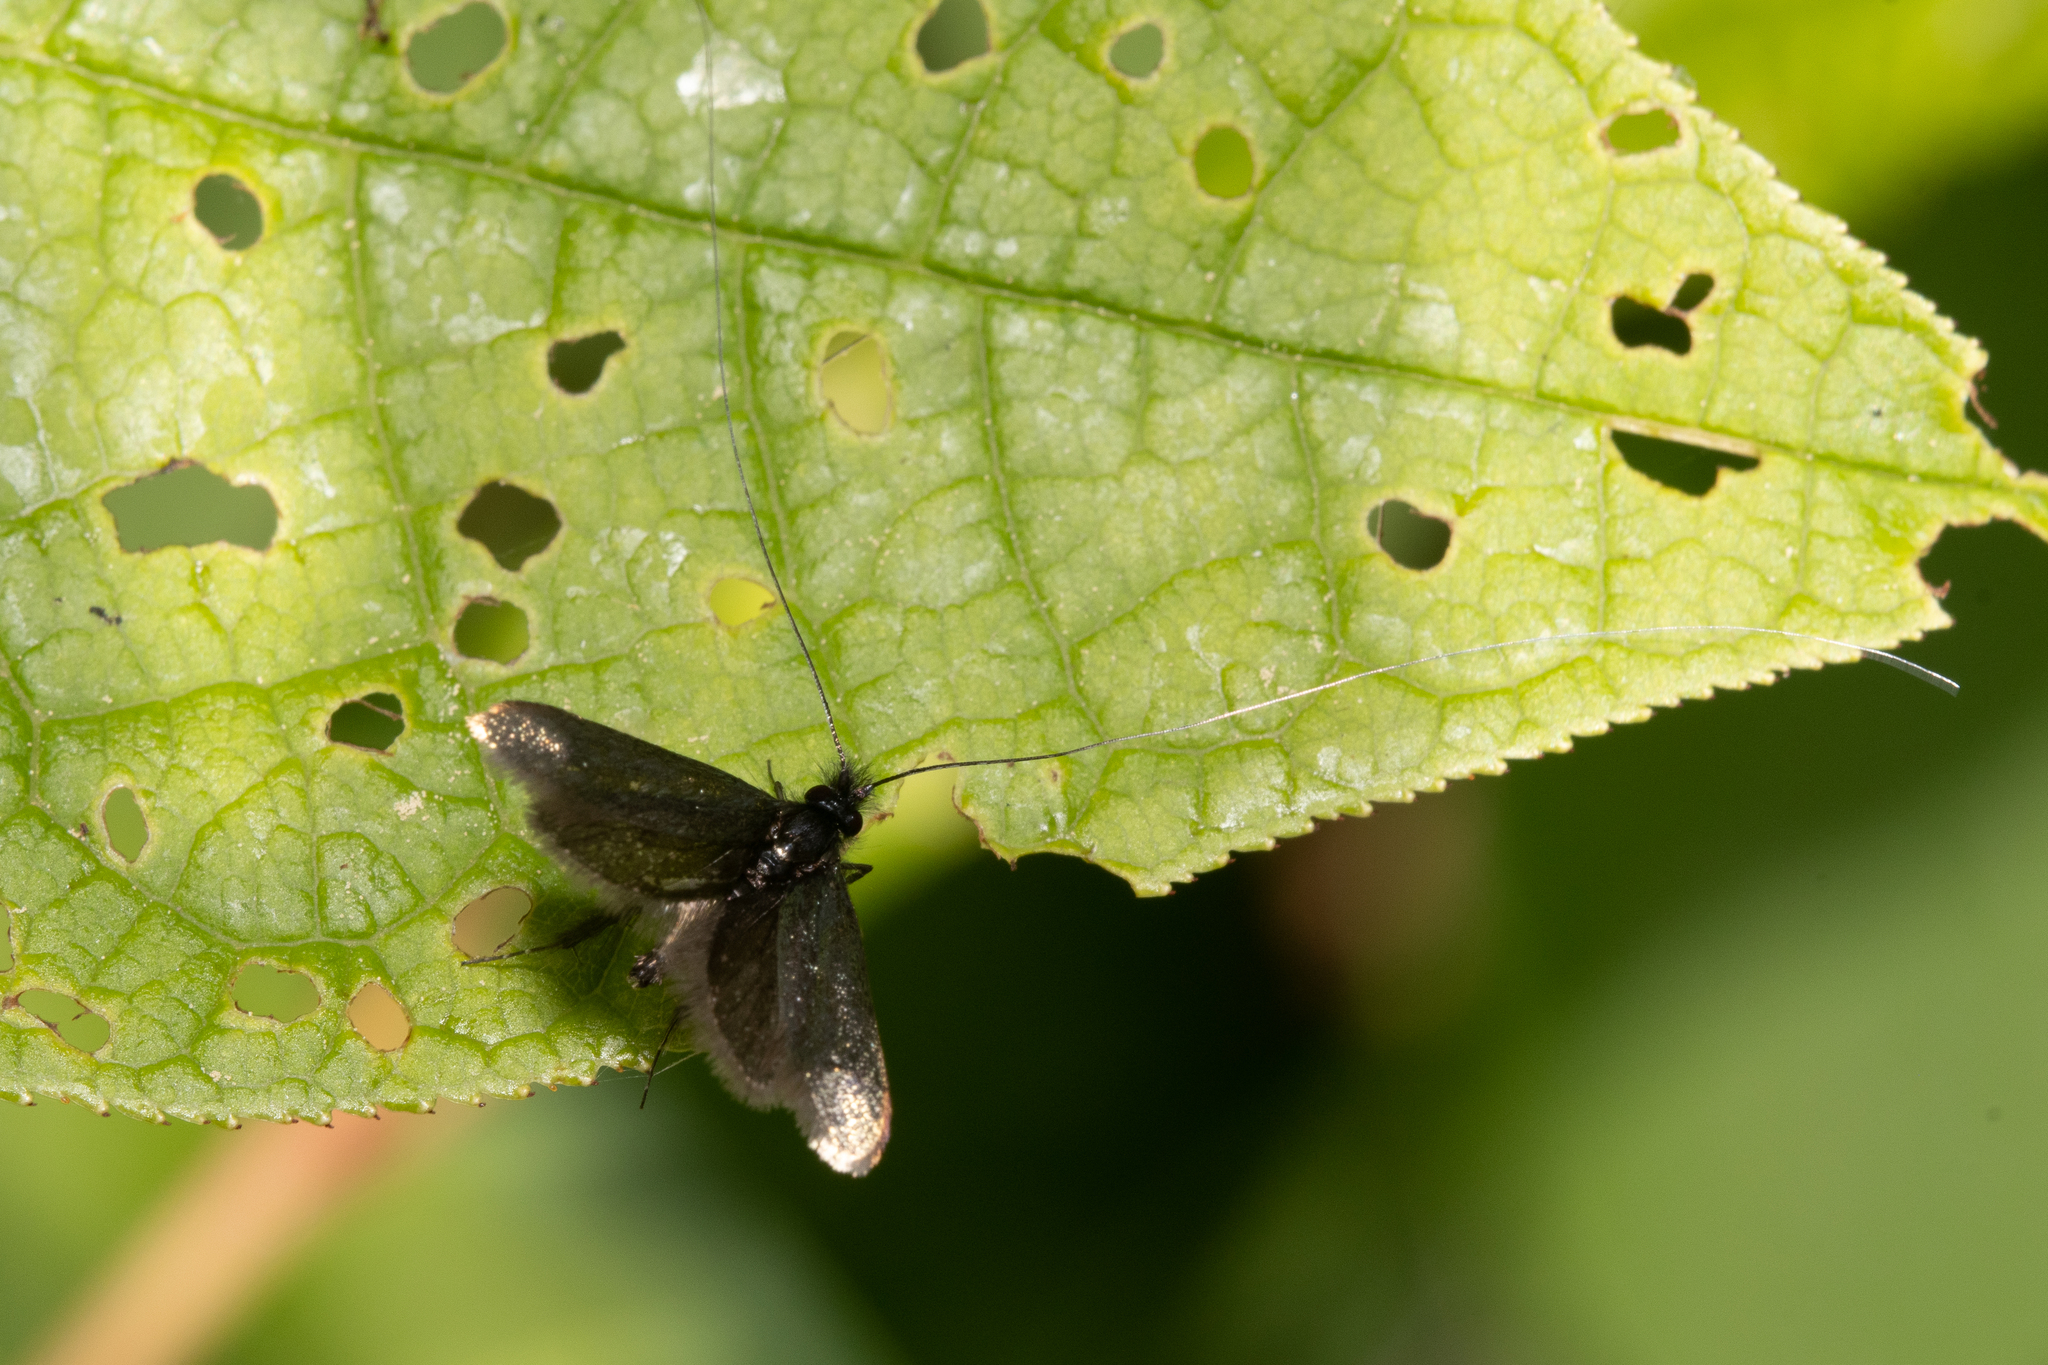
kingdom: Animalia
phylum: Arthropoda
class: Insecta
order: Lepidoptera
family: Adelidae
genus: Adela
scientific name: Adela viridella
